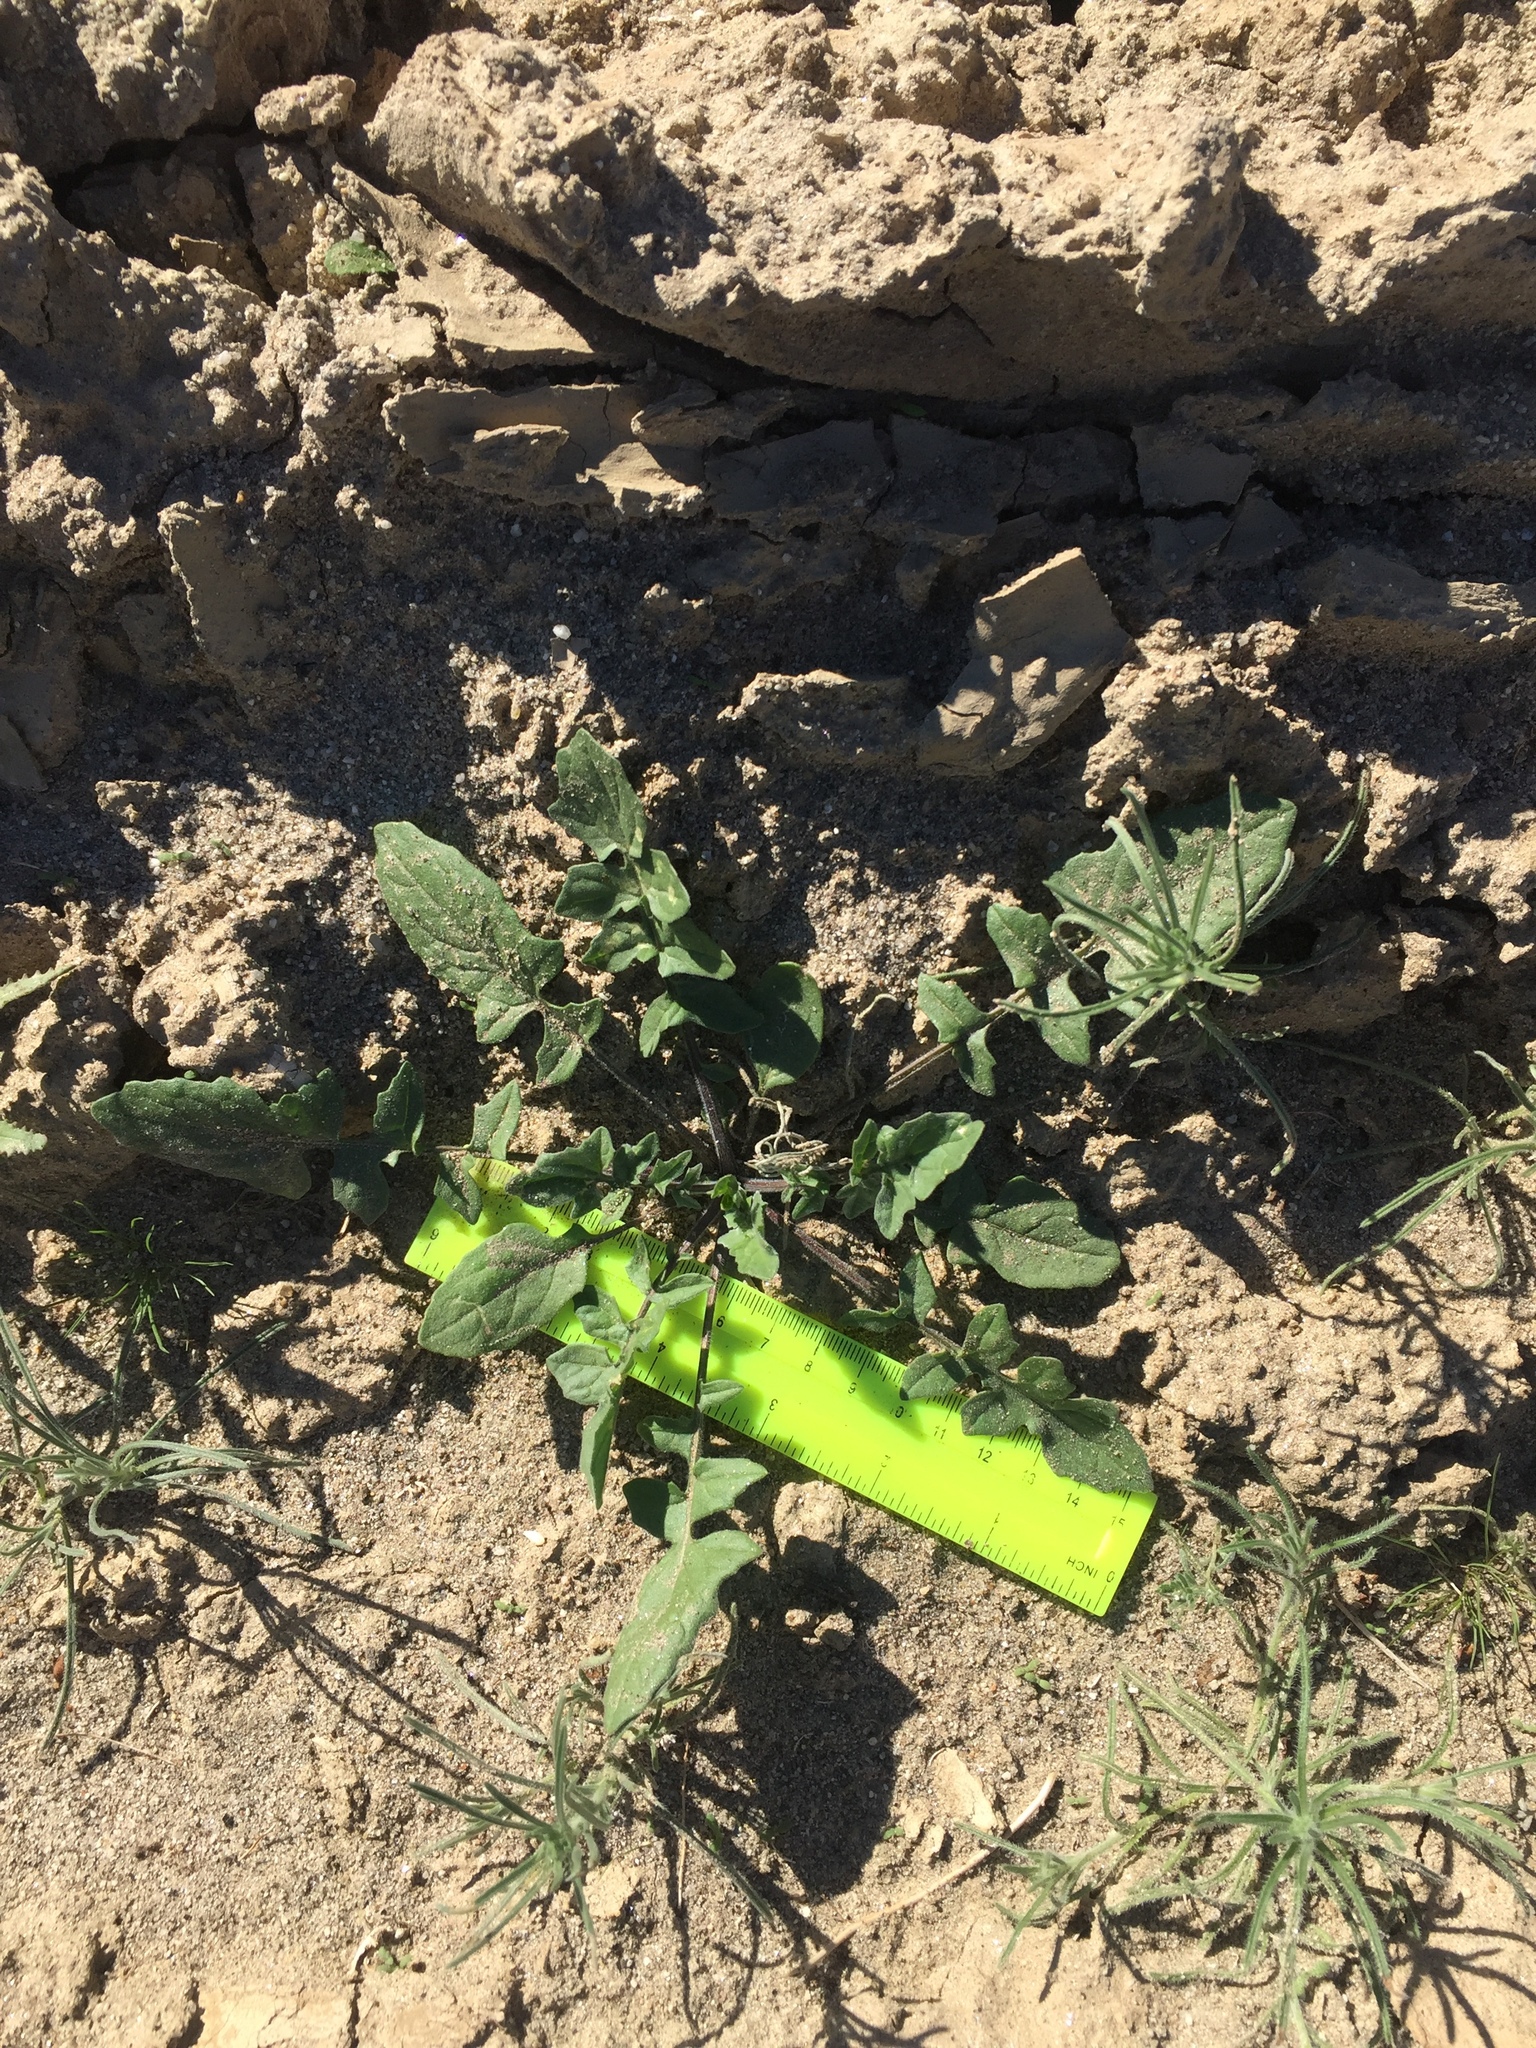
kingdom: Plantae
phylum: Tracheophyta
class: Magnoliopsida
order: Brassicales
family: Brassicaceae
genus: Sisymbrium
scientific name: Sisymbrium irio
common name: London rocket
